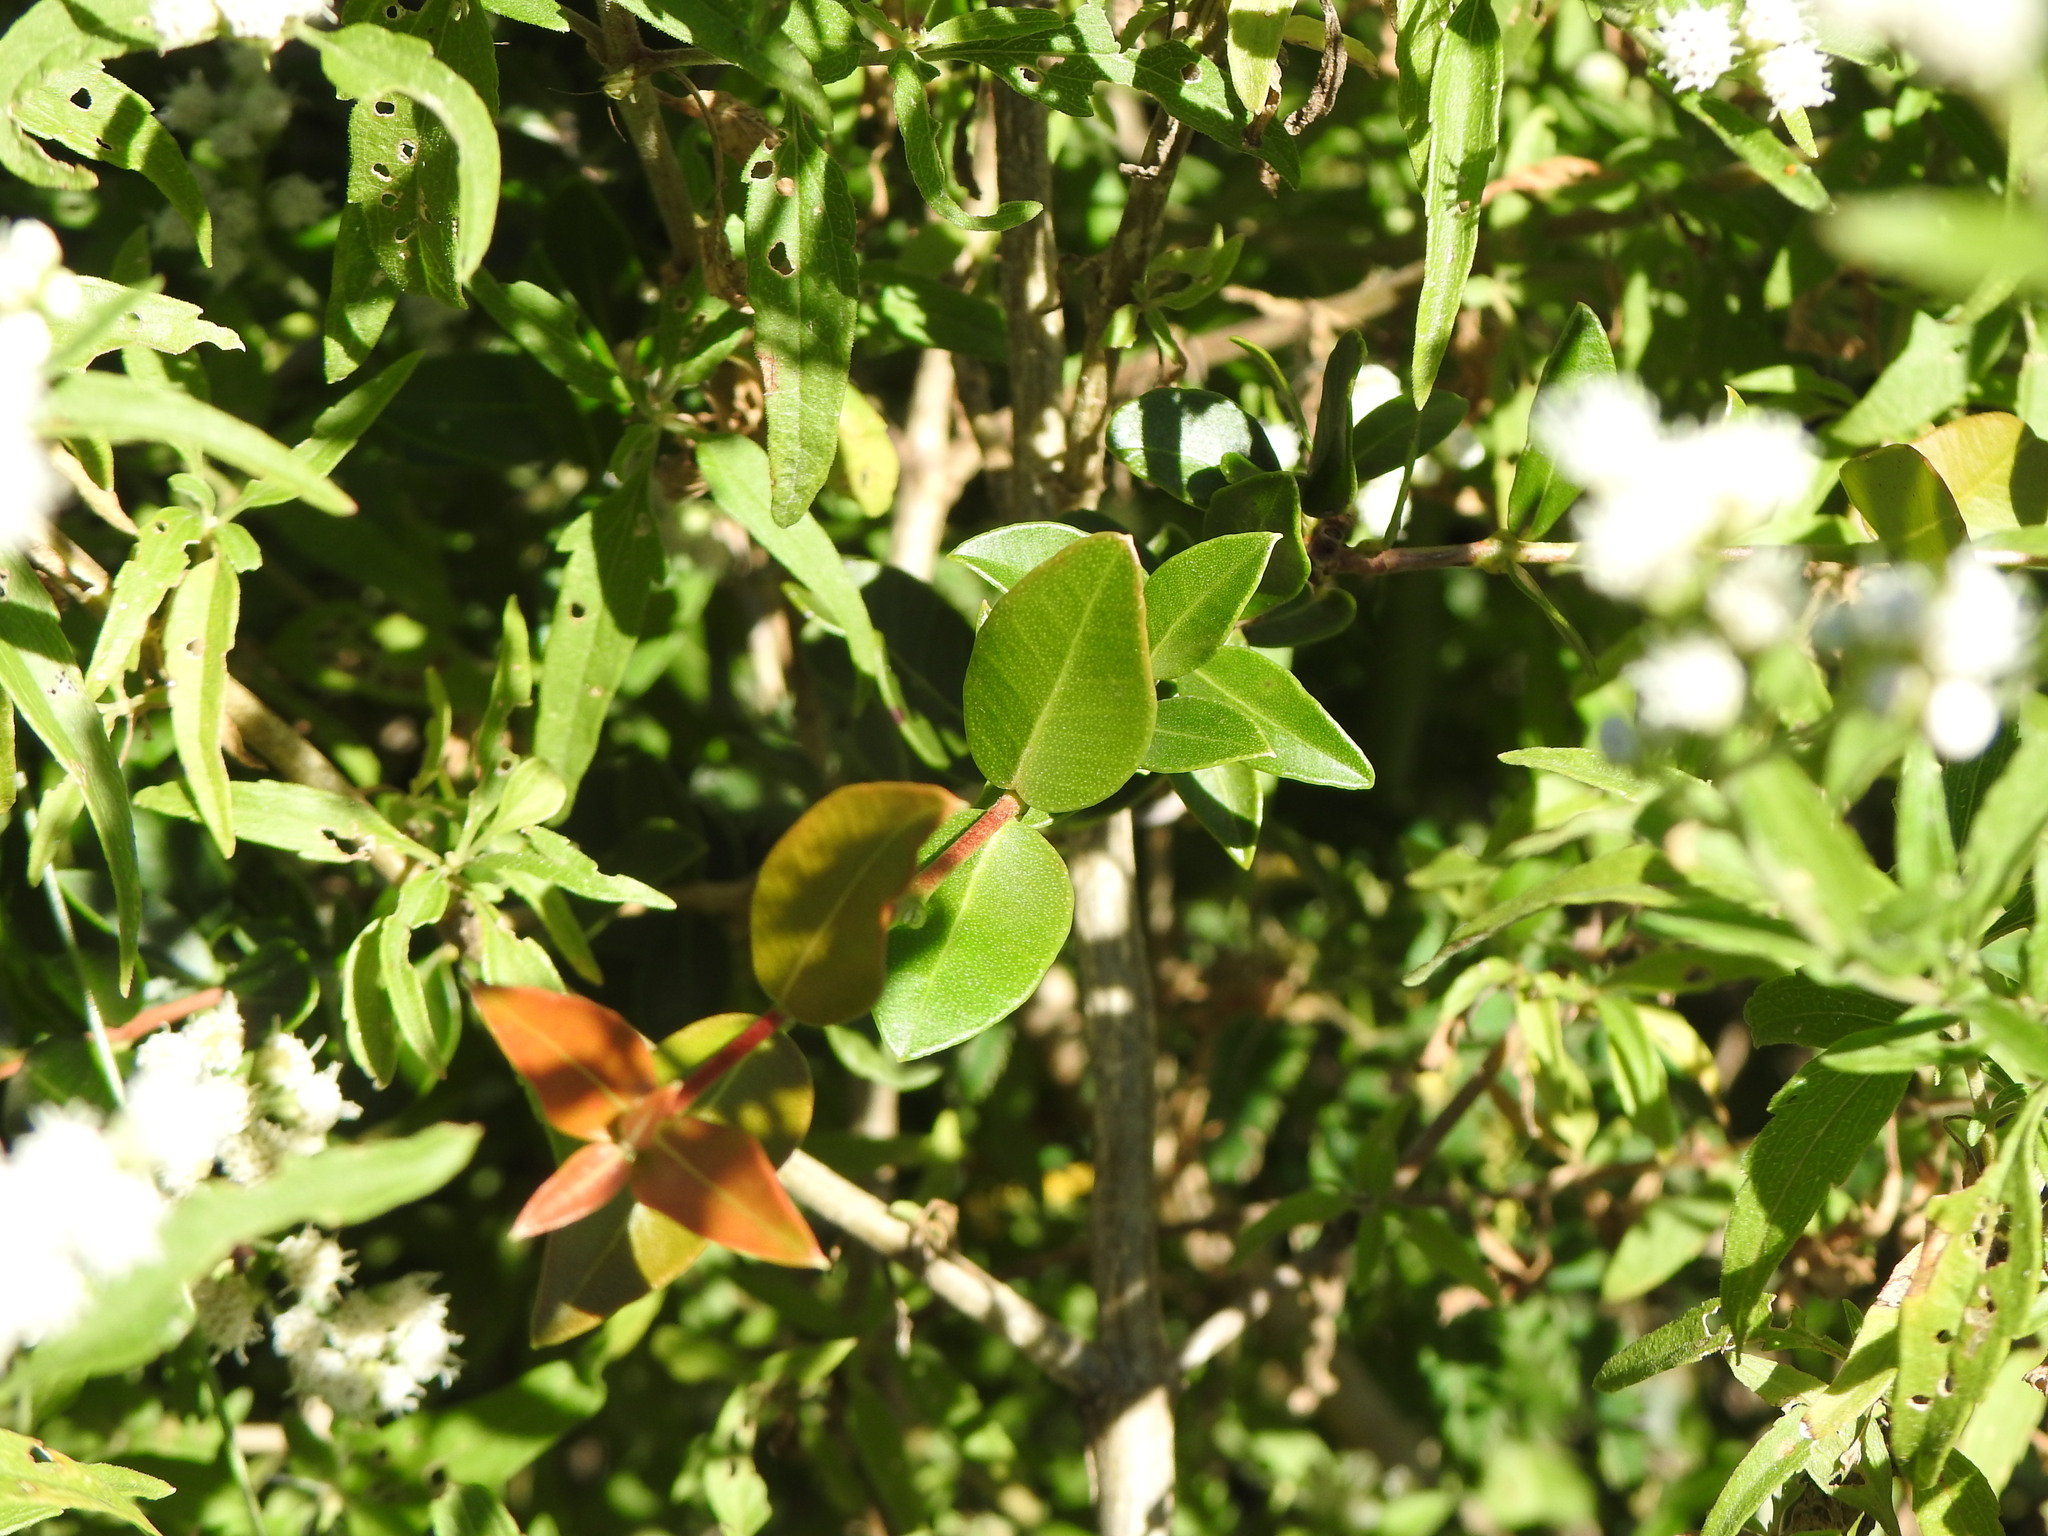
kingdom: Plantae
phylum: Tracheophyta
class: Magnoliopsida
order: Myrtales
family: Myrtaceae
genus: Myrcia
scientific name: Myrcia selloi
